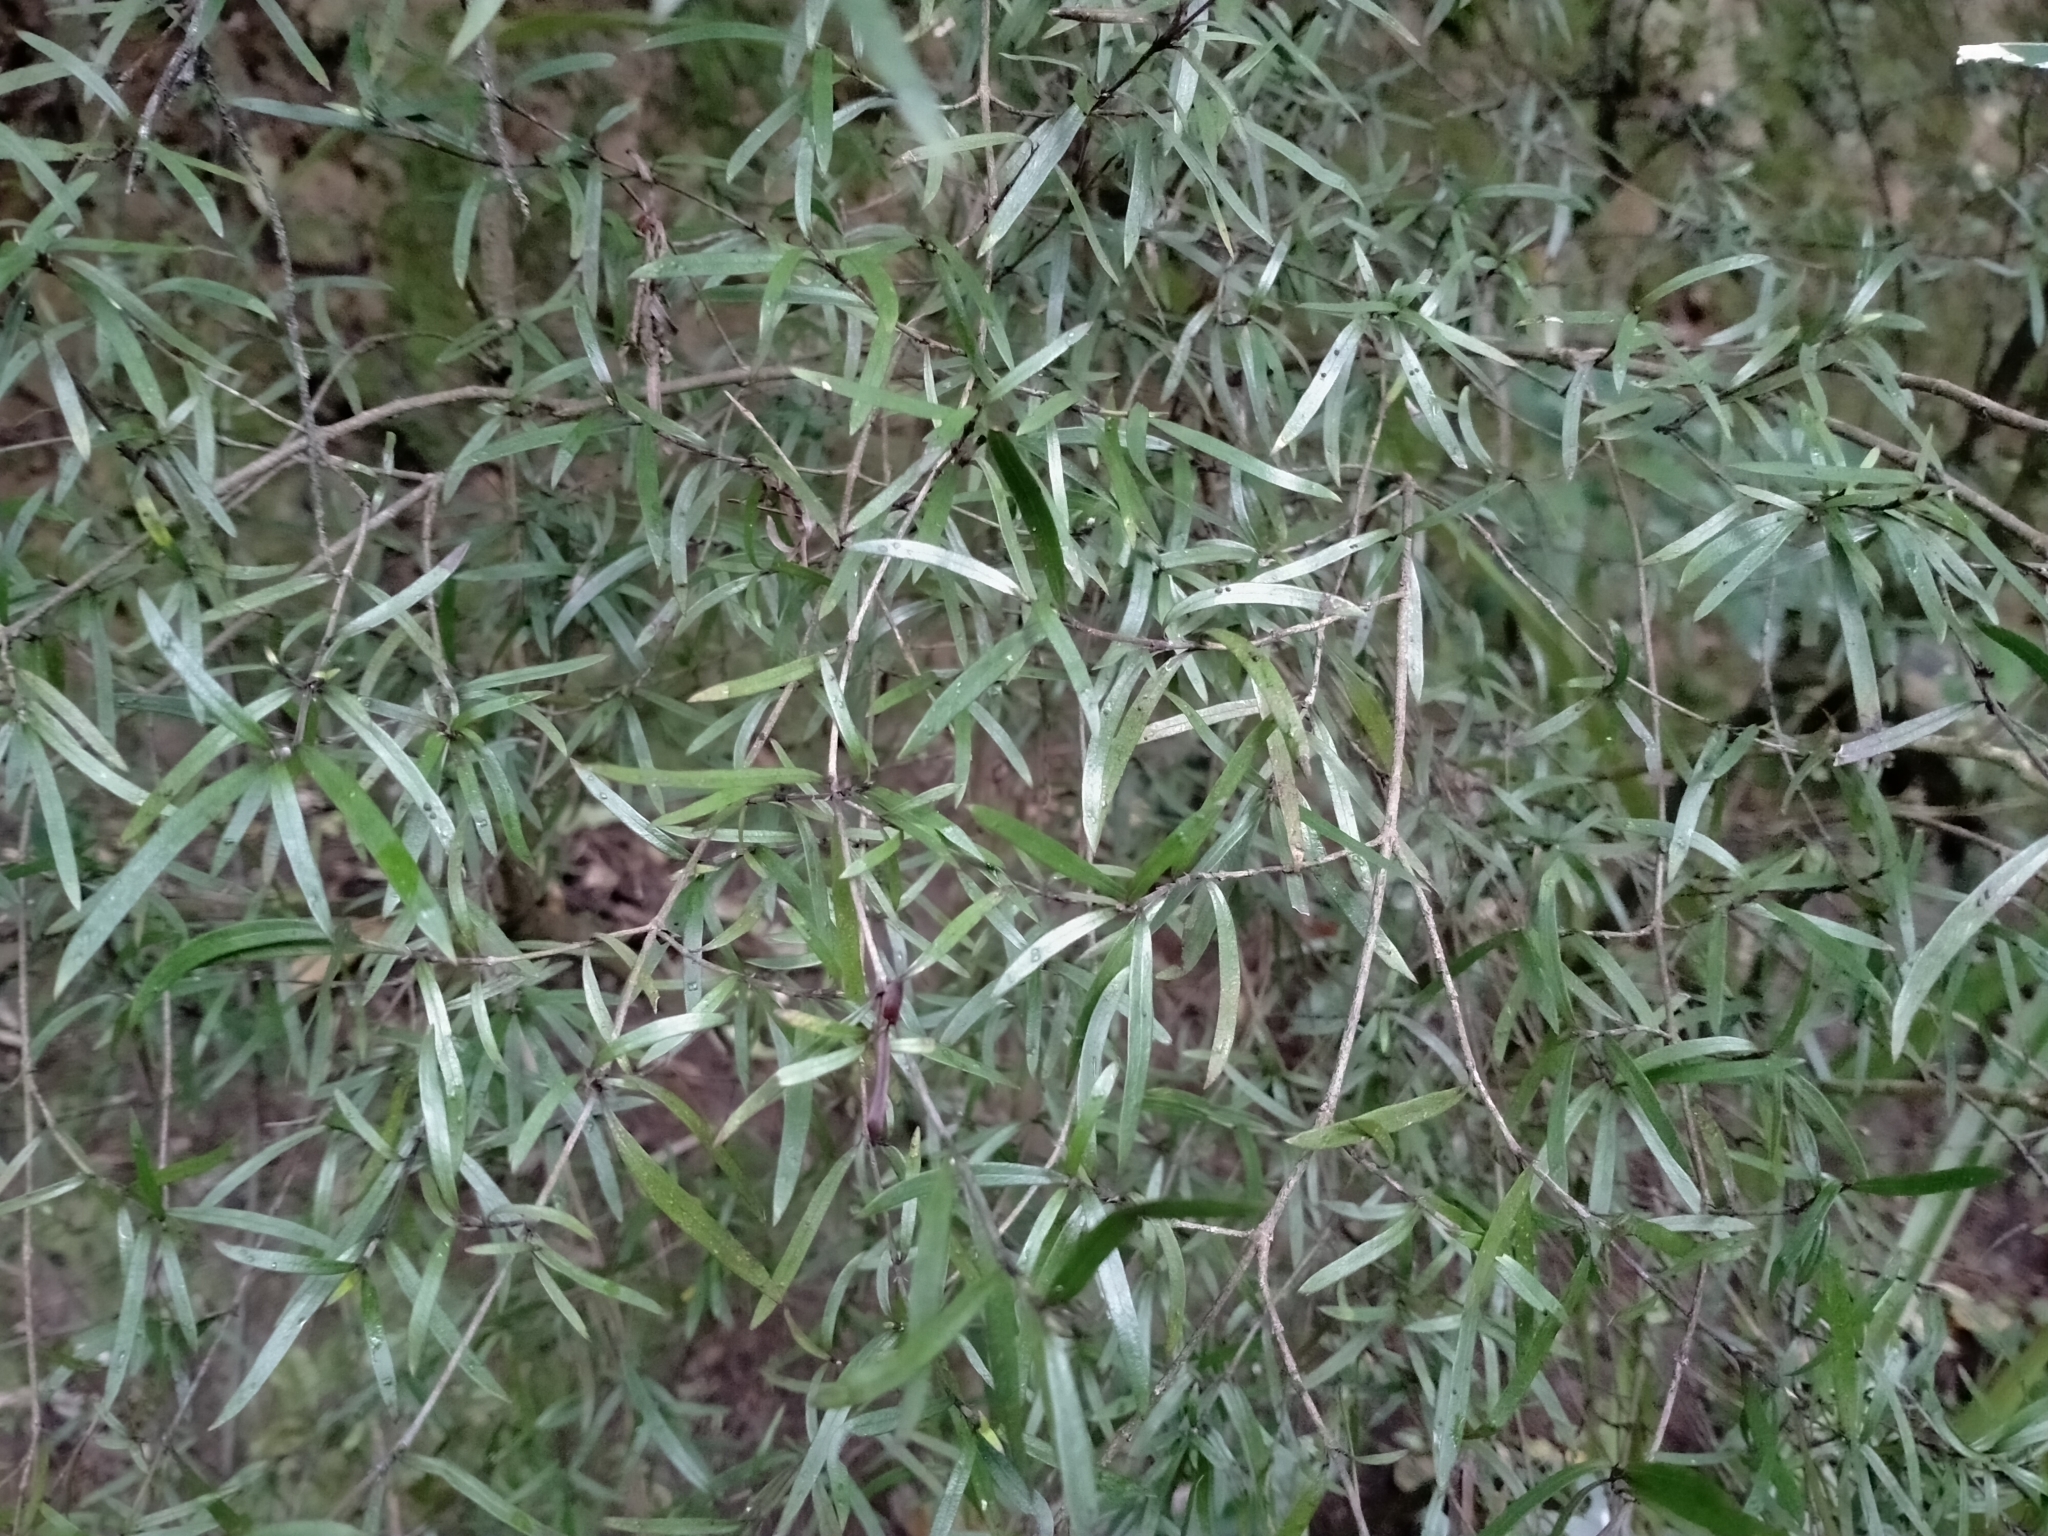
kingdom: Plantae
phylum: Tracheophyta
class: Magnoliopsida
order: Gentianales
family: Rubiaceae
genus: Coprosma
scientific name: Coprosma linariifolia
